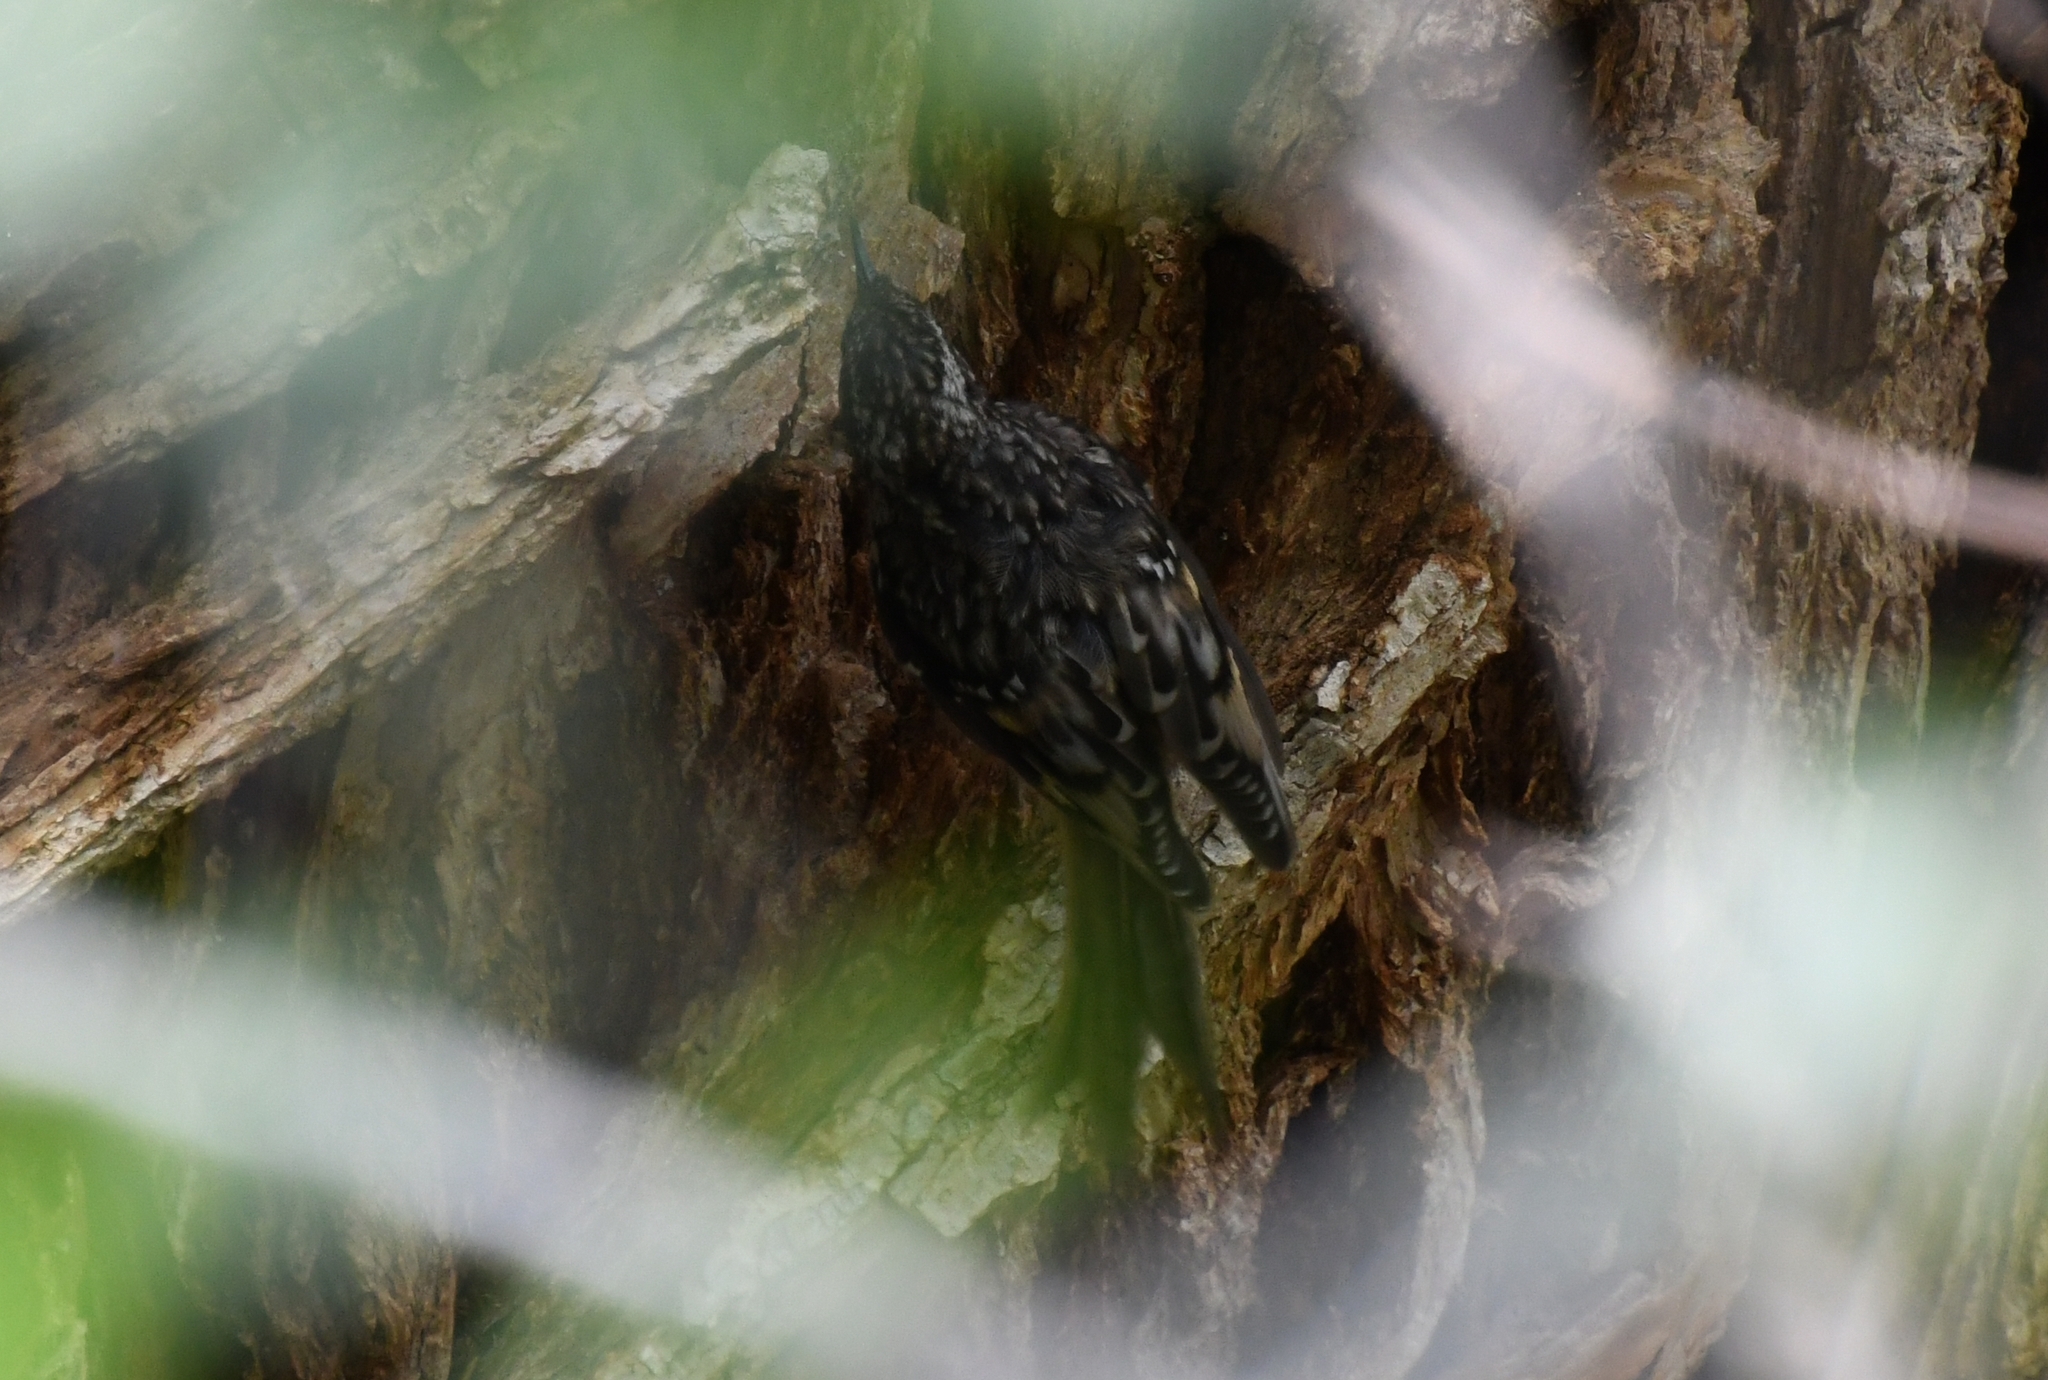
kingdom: Animalia
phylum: Chordata
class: Aves
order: Passeriformes
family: Certhiidae
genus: Certhia
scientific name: Certhia americana
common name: Brown creeper
